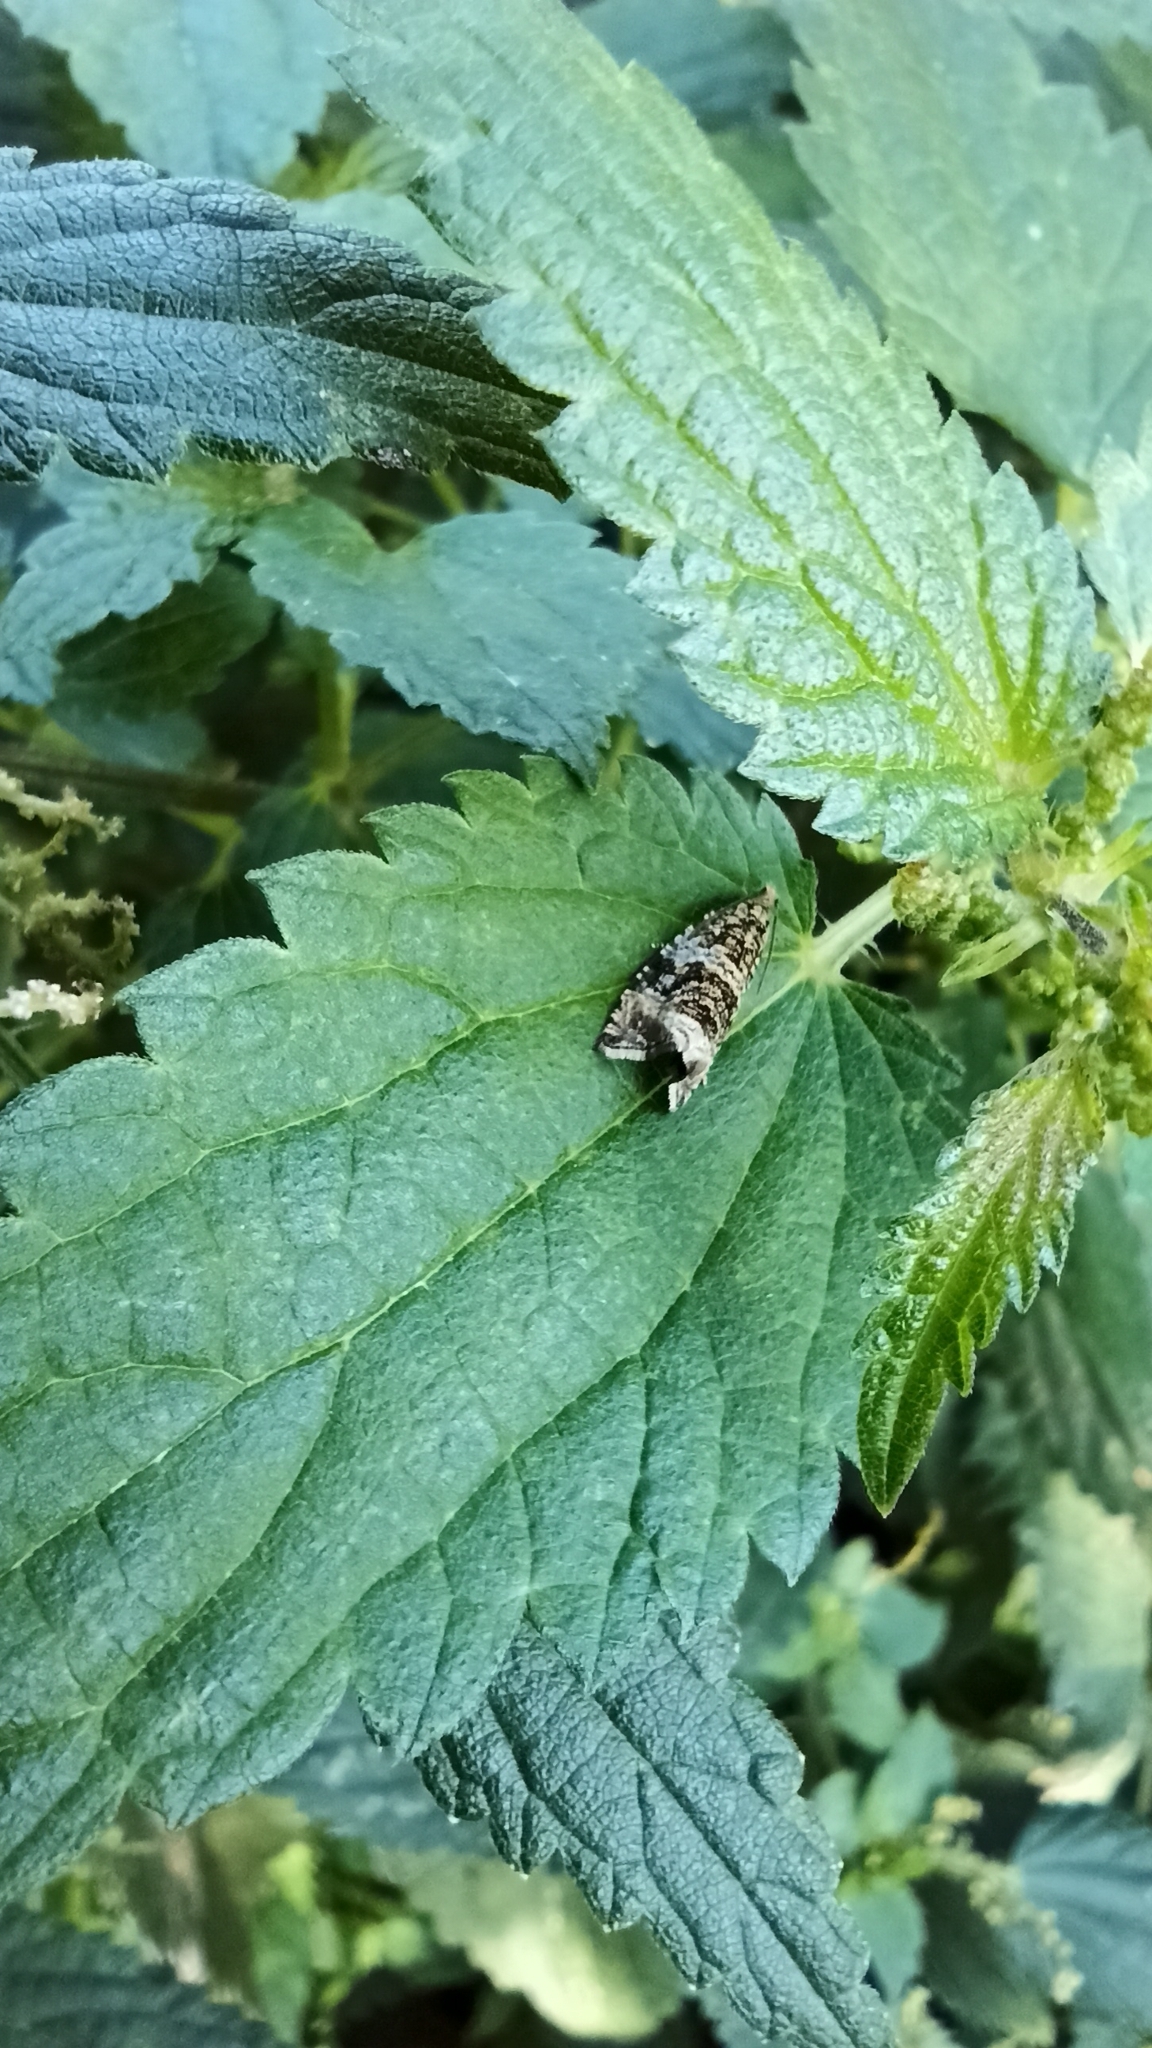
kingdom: Animalia
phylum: Arthropoda
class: Insecta
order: Lepidoptera
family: Tortricidae
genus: Syricoris
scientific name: Syricoris lacunana
